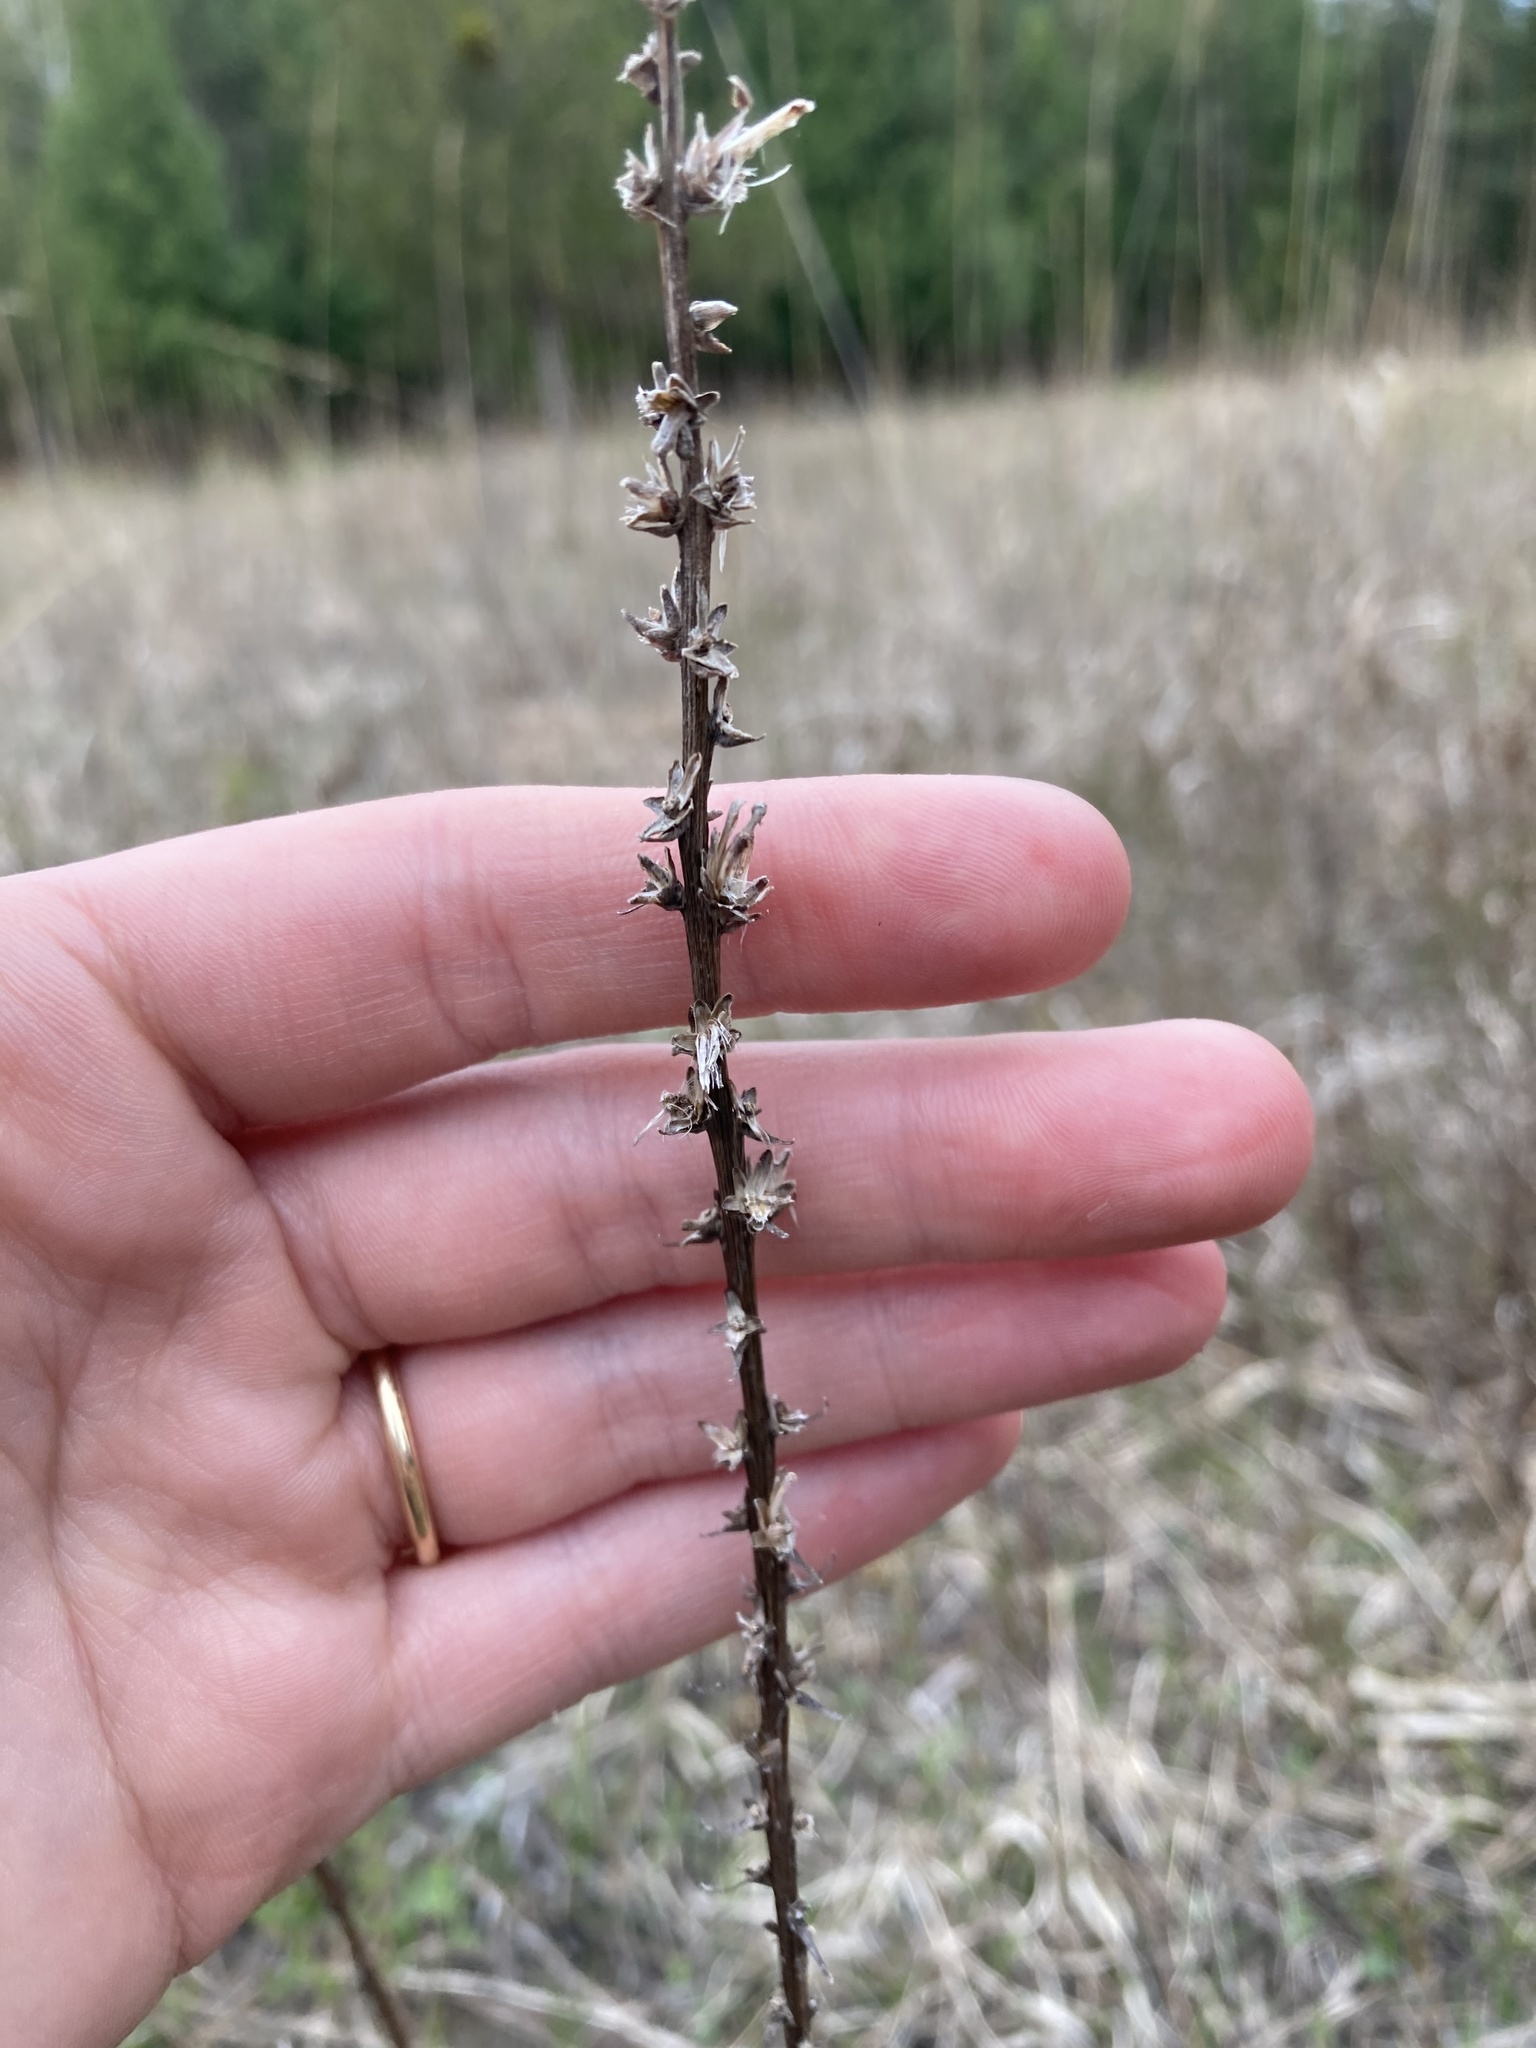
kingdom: Plantae
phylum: Tracheophyta
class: Magnoliopsida
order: Asterales
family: Asteraceae
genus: Liatris
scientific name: Liatris spicata
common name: Florist gayfeather
